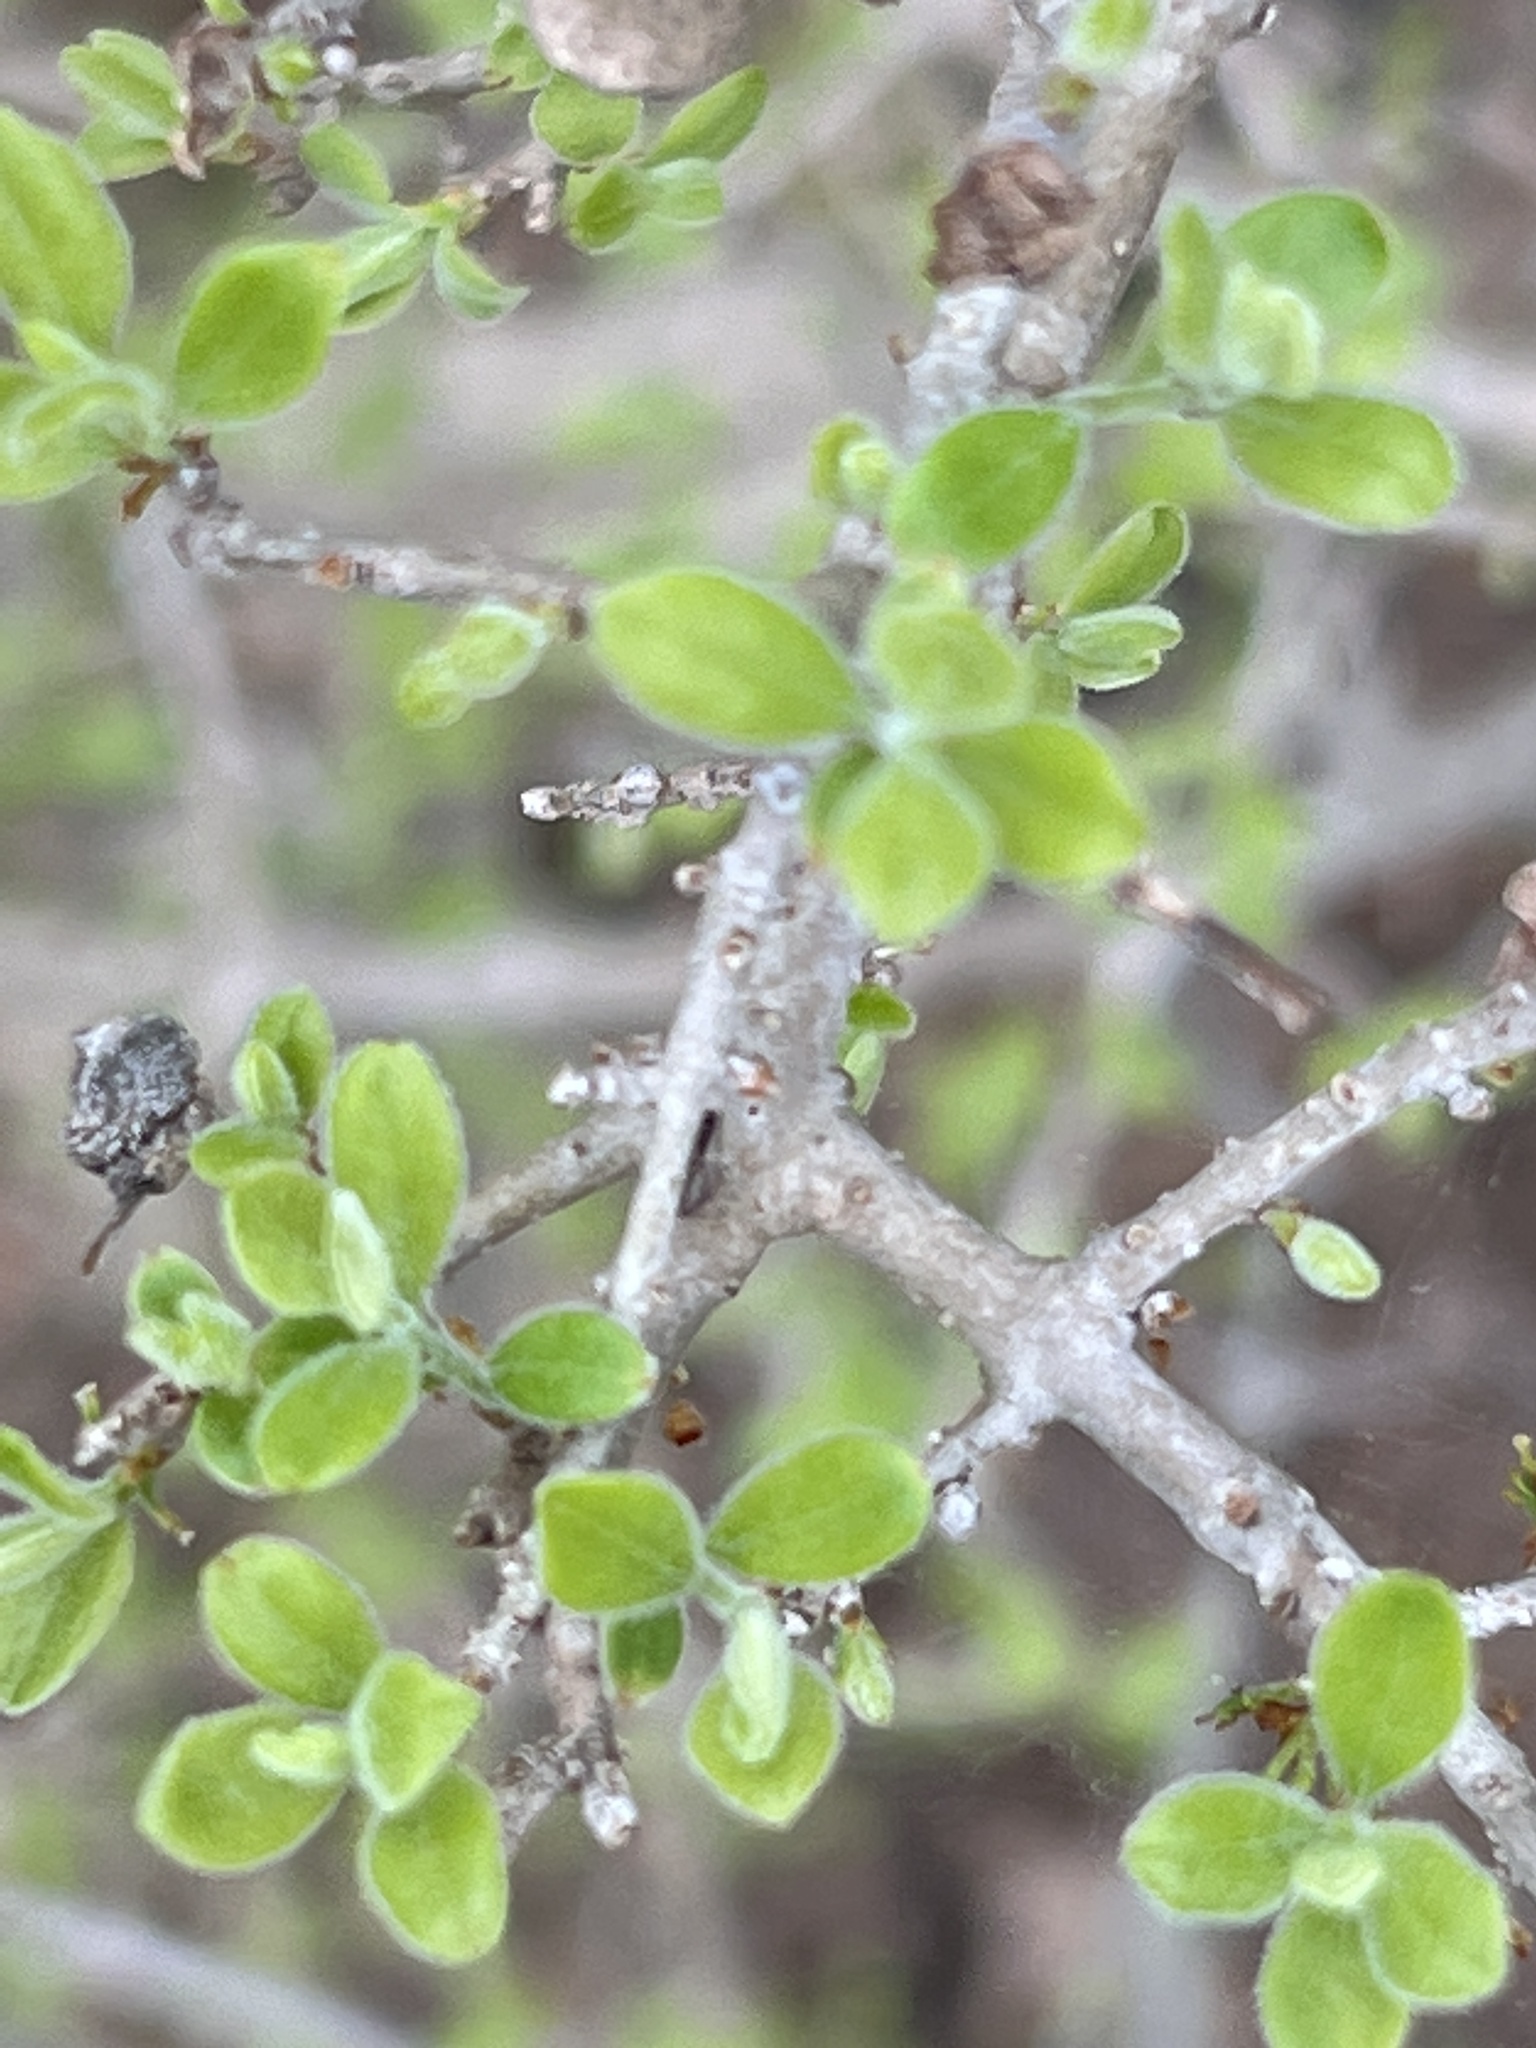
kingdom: Plantae
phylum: Tracheophyta
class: Magnoliopsida
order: Lamiales
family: Oleaceae
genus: Forestiera
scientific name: Forestiera pubescens
